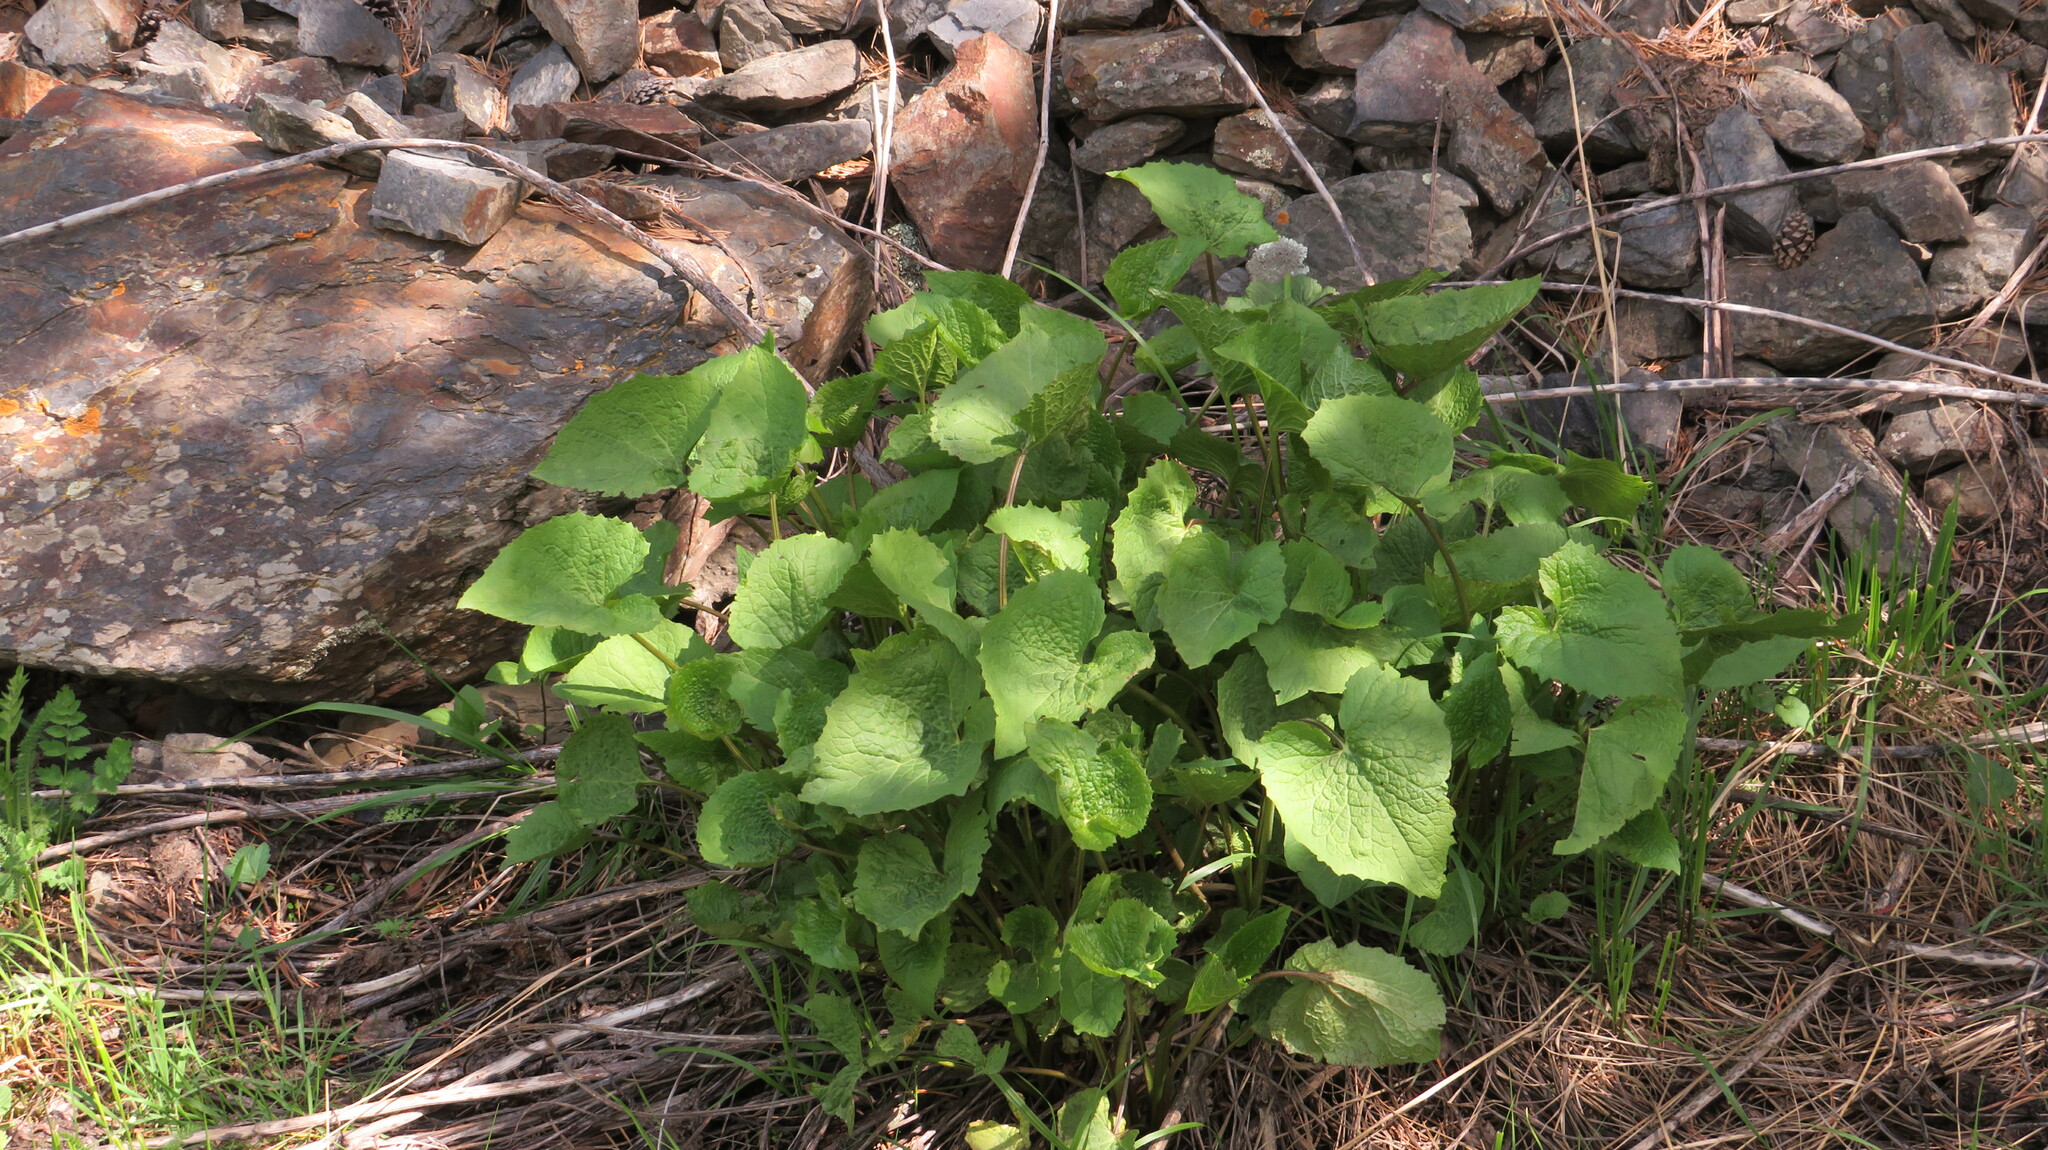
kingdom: Plantae
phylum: Tracheophyta
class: Magnoliopsida
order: Brassicales
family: Brassicaceae
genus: Alliaria
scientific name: Alliaria petiolata
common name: Garlic mustard
